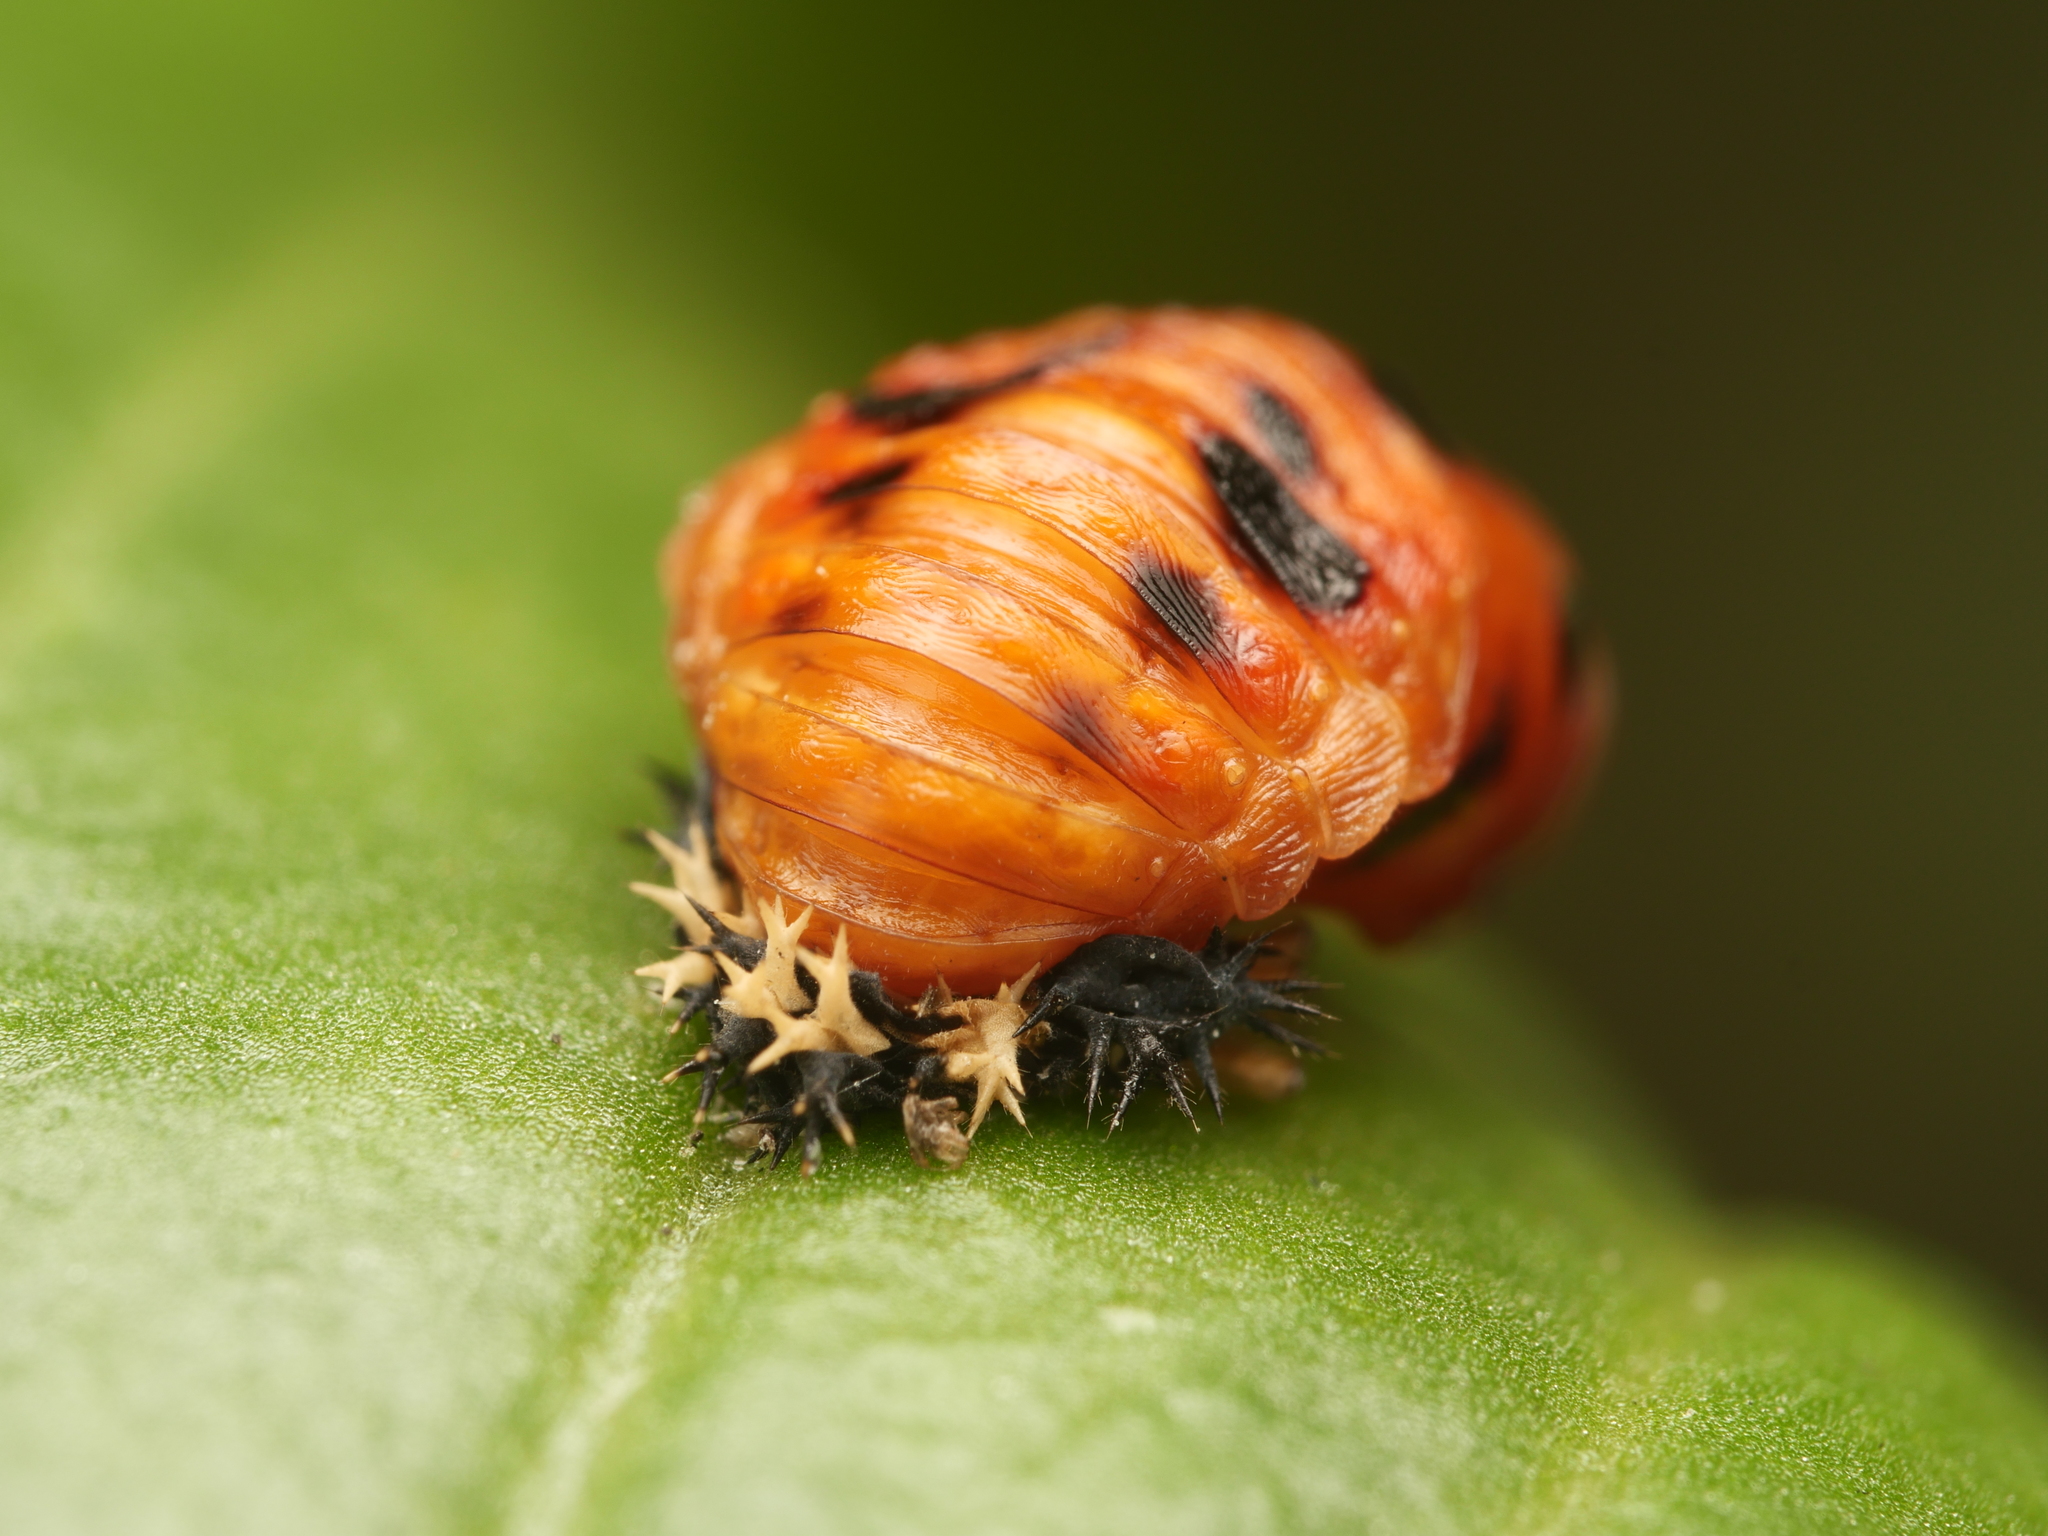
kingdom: Animalia
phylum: Arthropoda
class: Insecta
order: Coleoptera
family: Coccinellidae
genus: Harmonia
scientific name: Harmonia axyridis
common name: Harlequin ladybird
